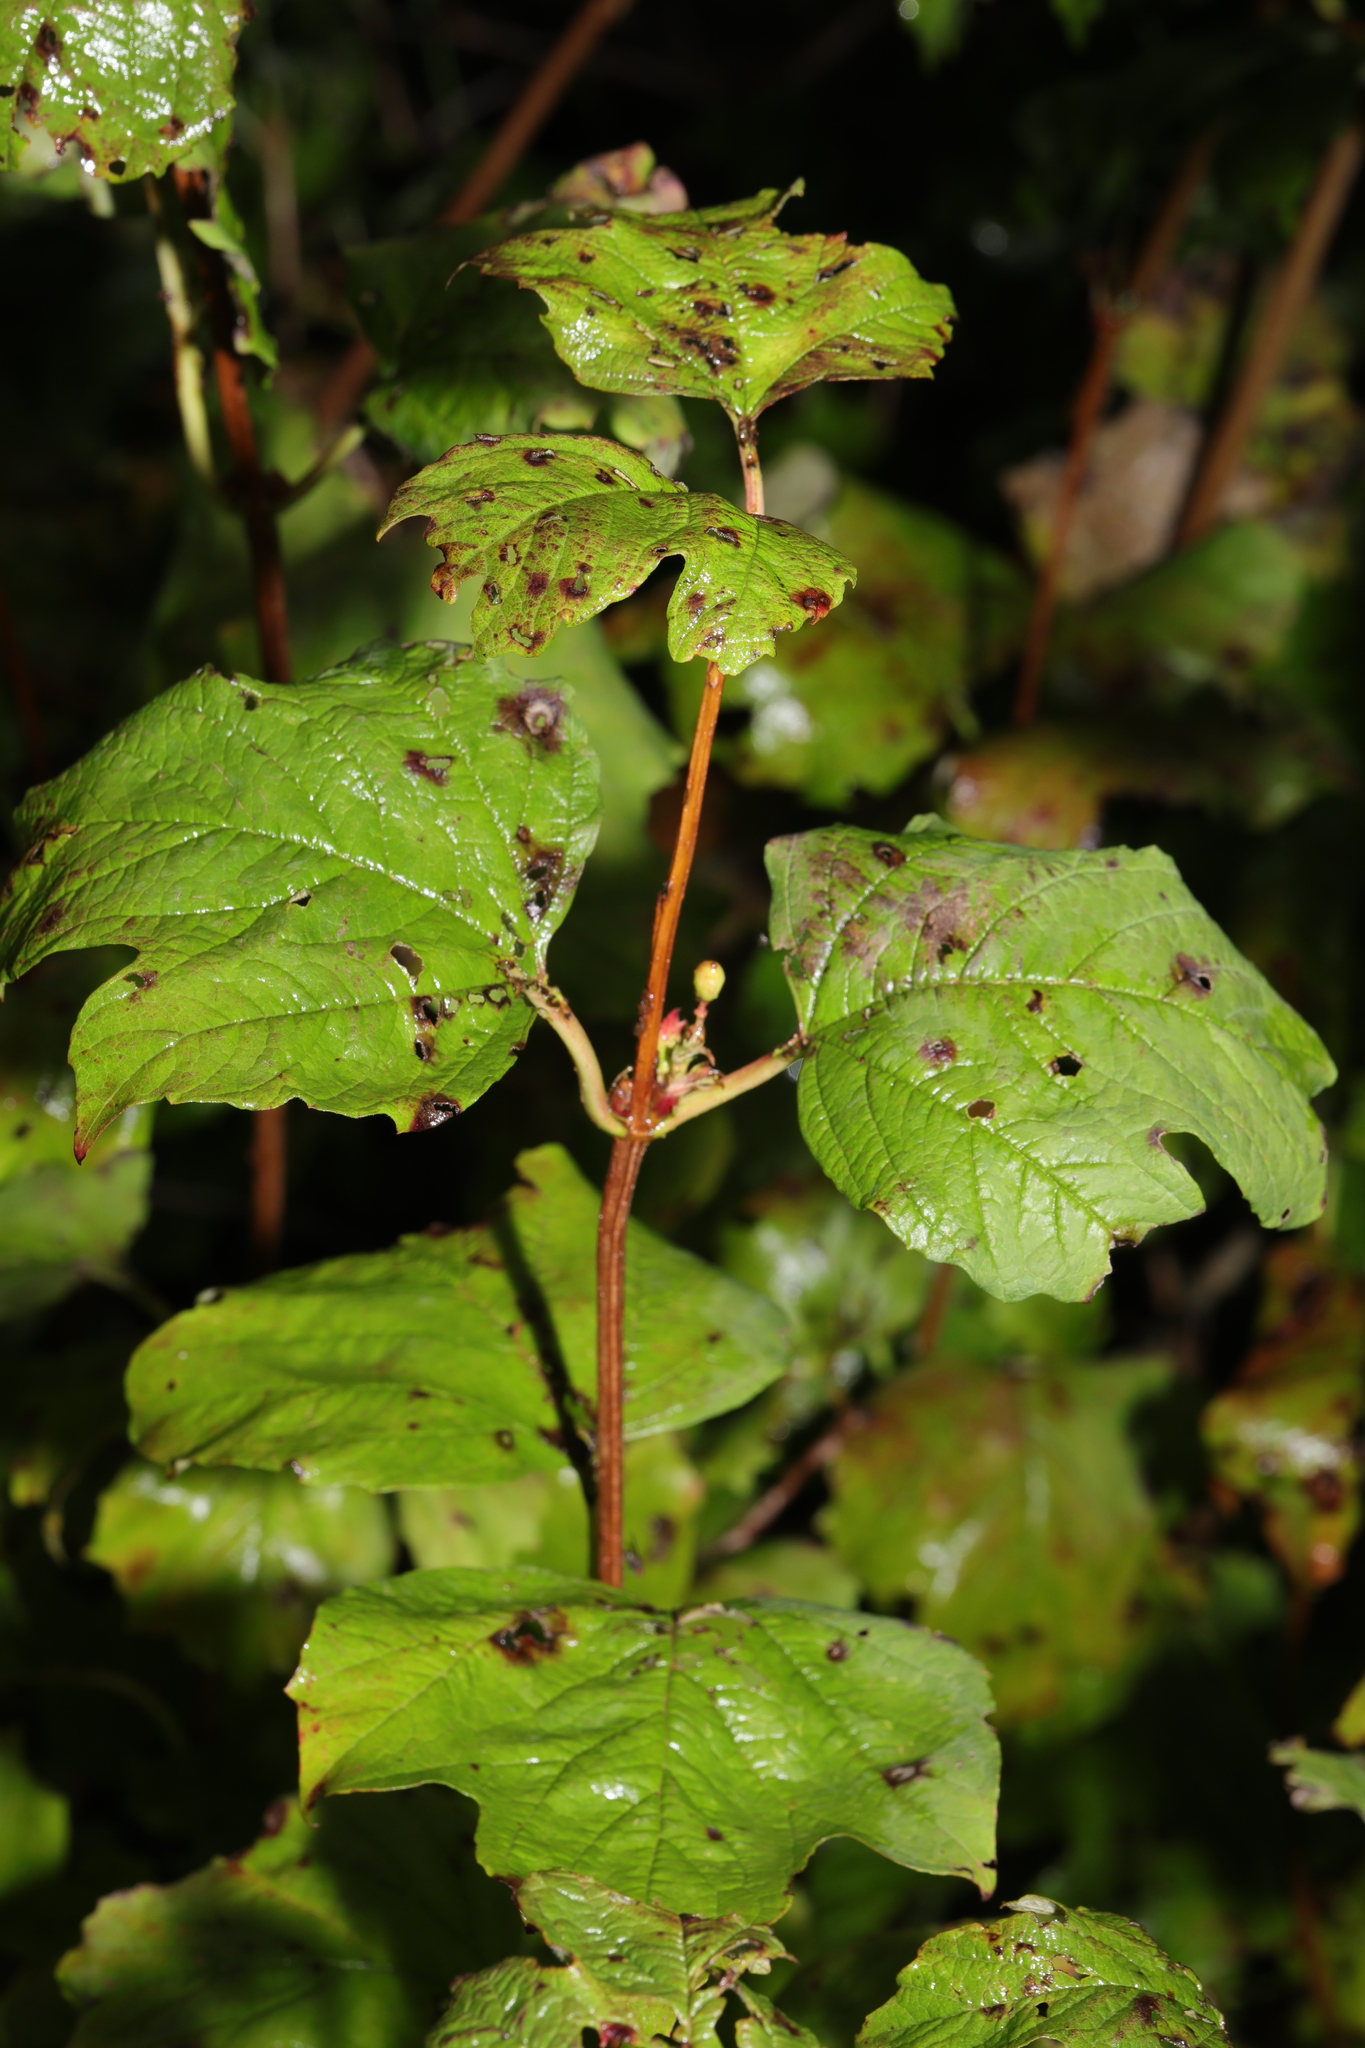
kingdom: Plantae
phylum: Tracheophyta
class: Magnoliopsida
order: Dipsacales
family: Viburnaceae
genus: Viburnum
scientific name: Viburnum opulus
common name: Guelder-rose
